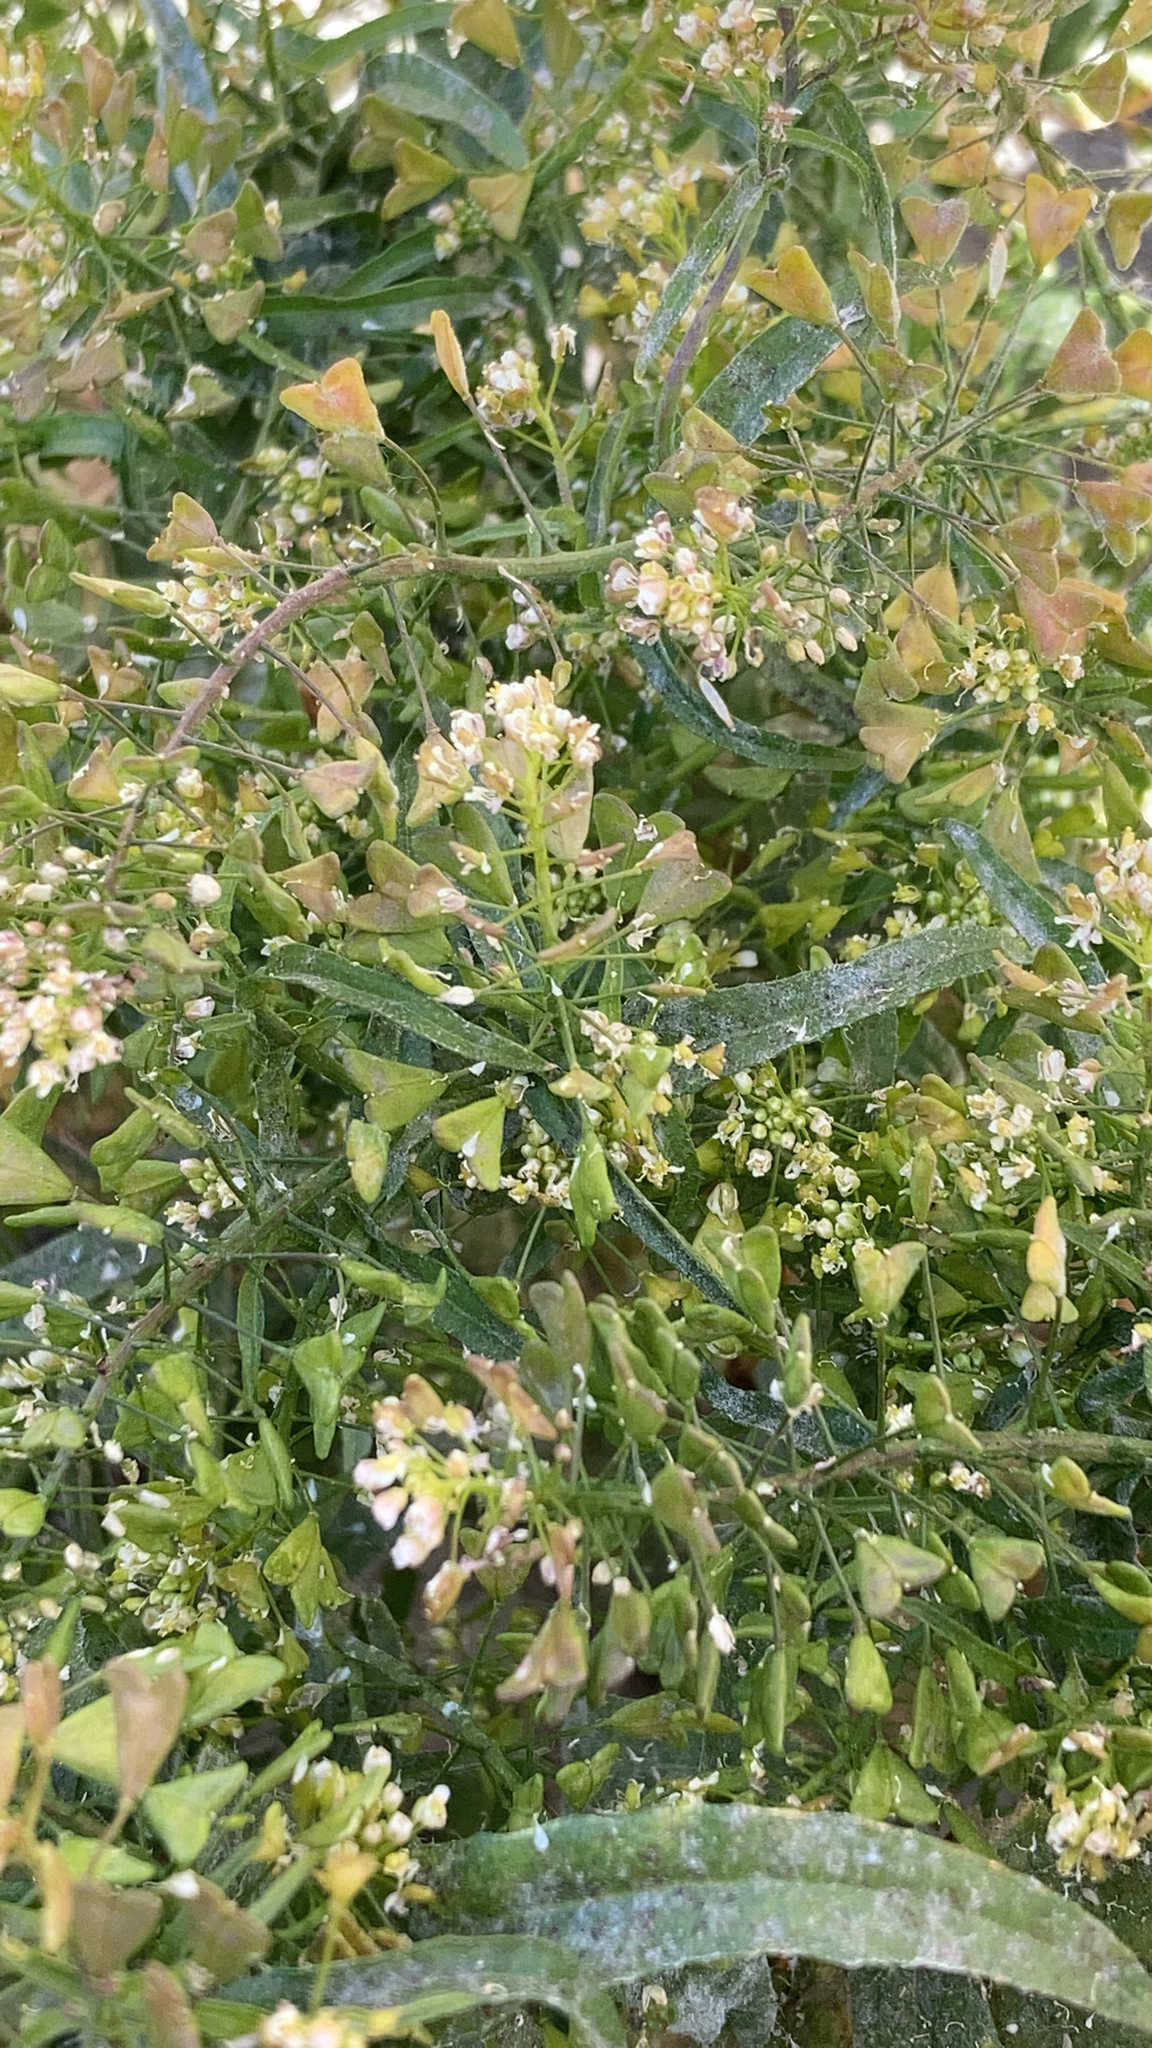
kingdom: Plantae
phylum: Tracheophyta
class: Magnoliopsida
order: Brassicales
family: Brassicaceae
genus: Capsella
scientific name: Capsella bursa-pastoris
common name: Shepherd's purse
